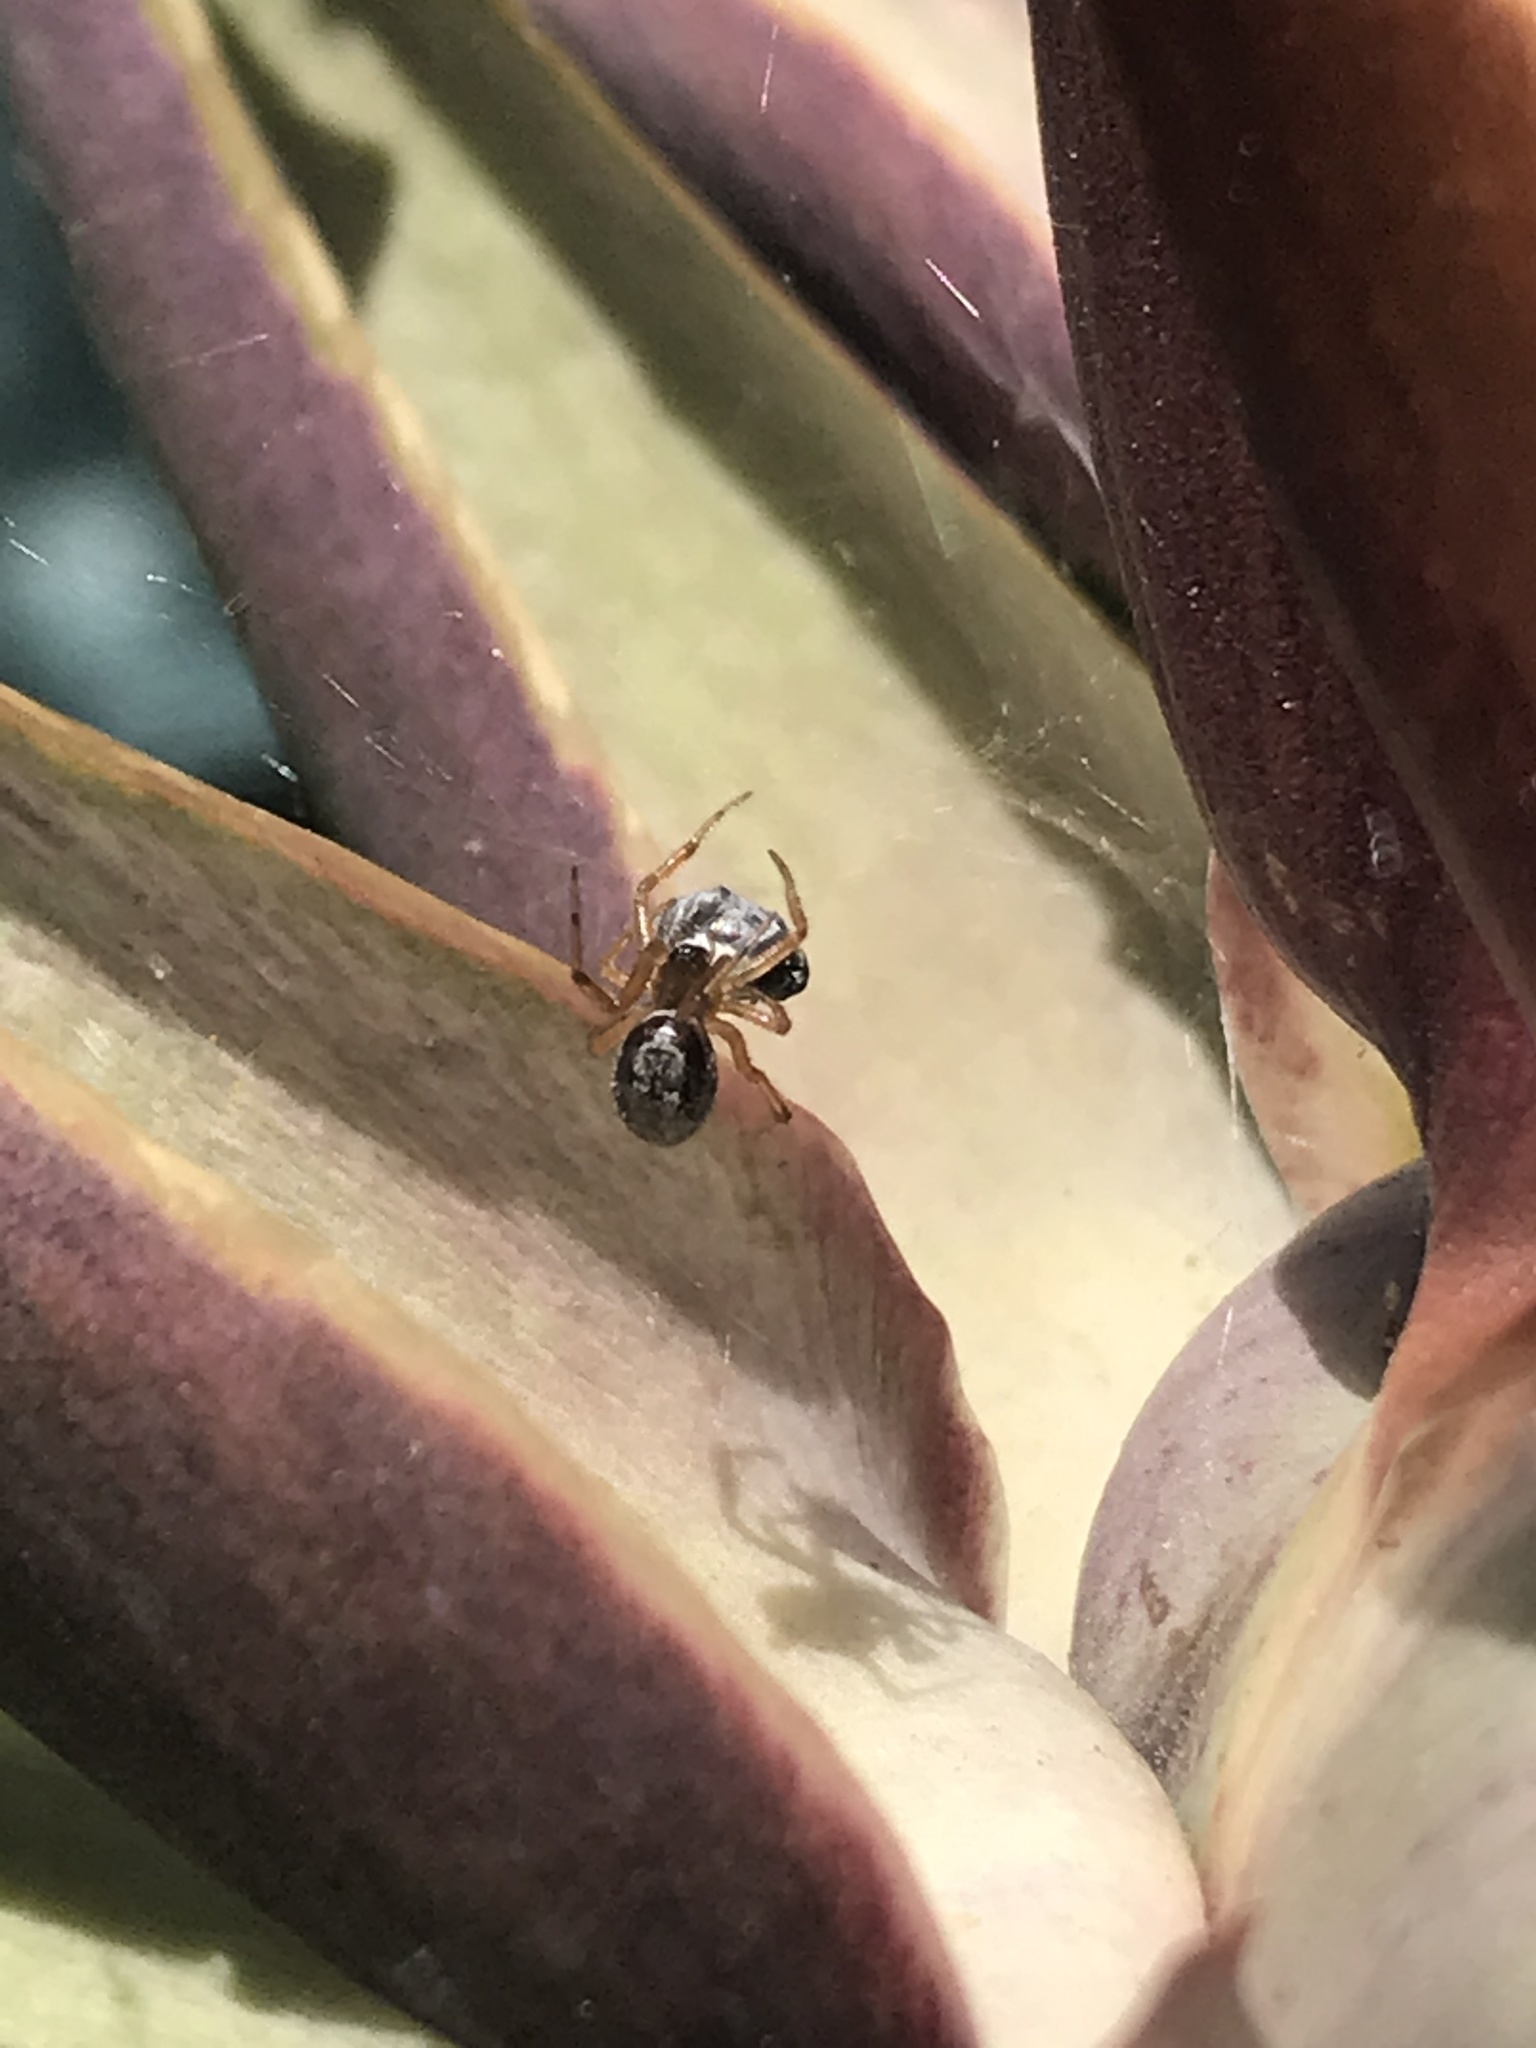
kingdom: Animalia
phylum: Arthropoda
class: Arachnida
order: Araneae
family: Theridiidae
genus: Steatoda
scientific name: Steatoda nobilis
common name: Cobweb weaver
